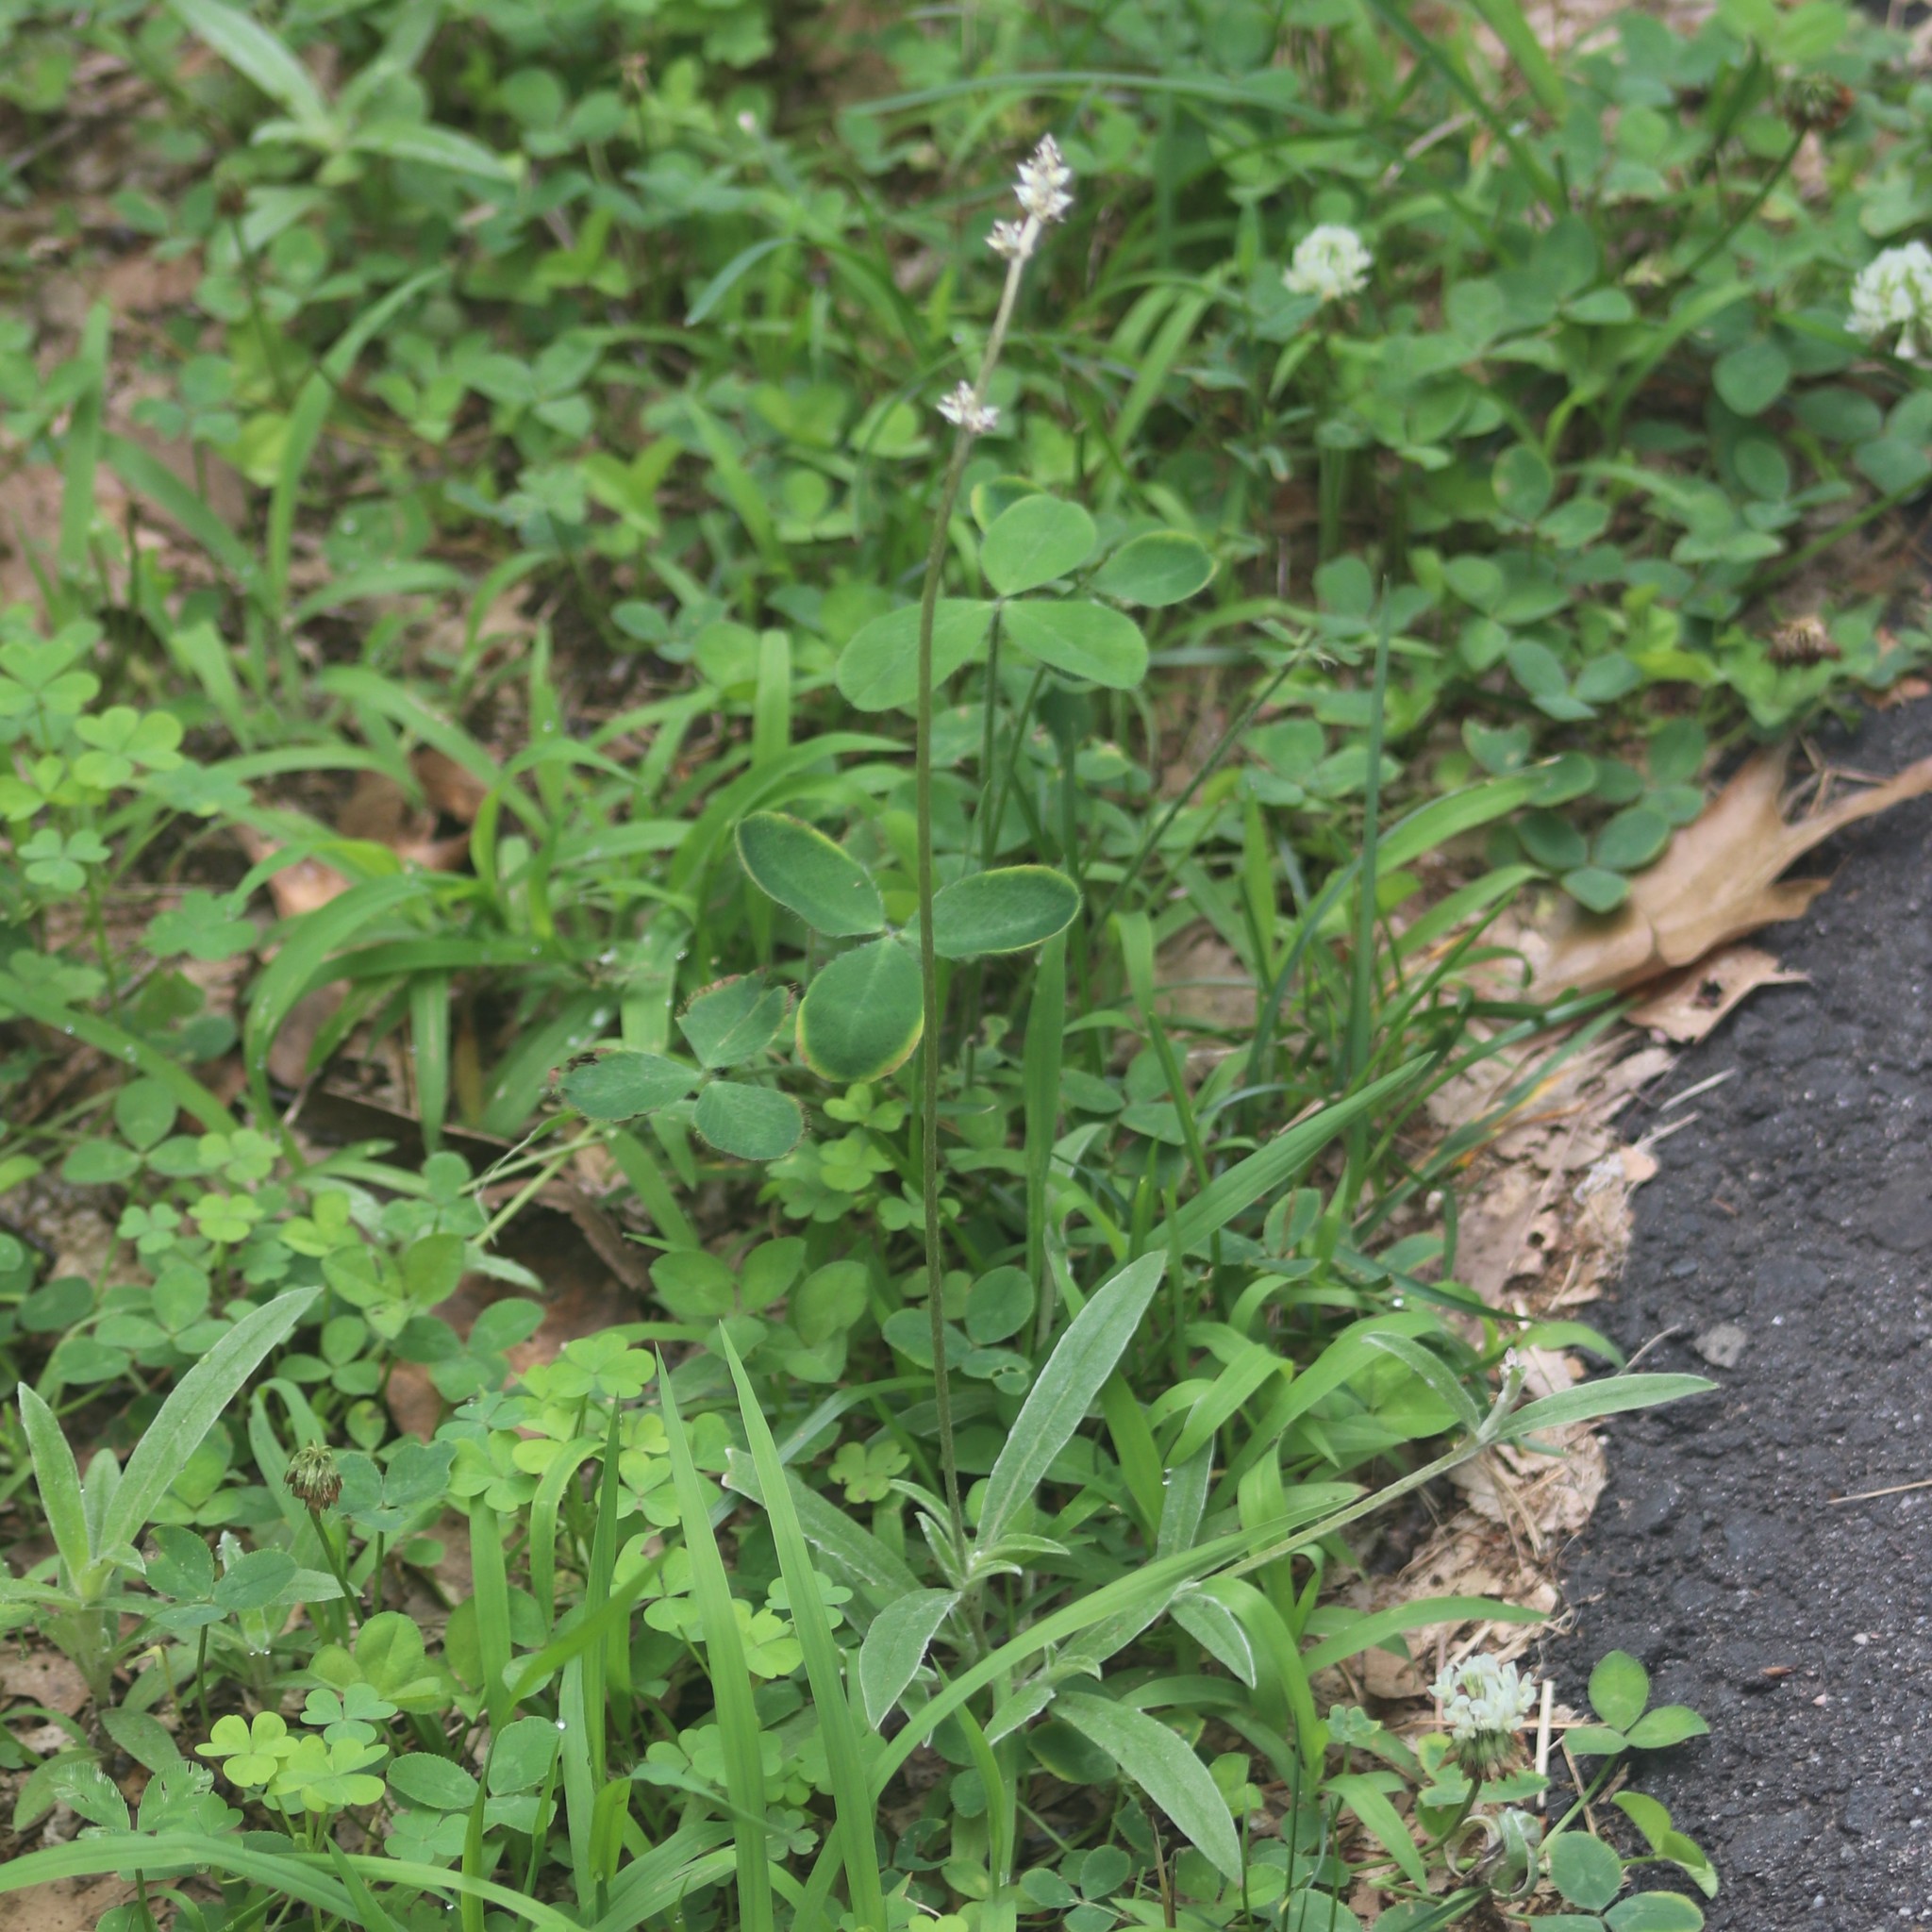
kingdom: Plantae
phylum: Tracheophyta
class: Magnoliopsida
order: Caryophyllales
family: Amaranthaceae
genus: Froelichia
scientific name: Froelichia gracilis
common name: Slender cottonweed
